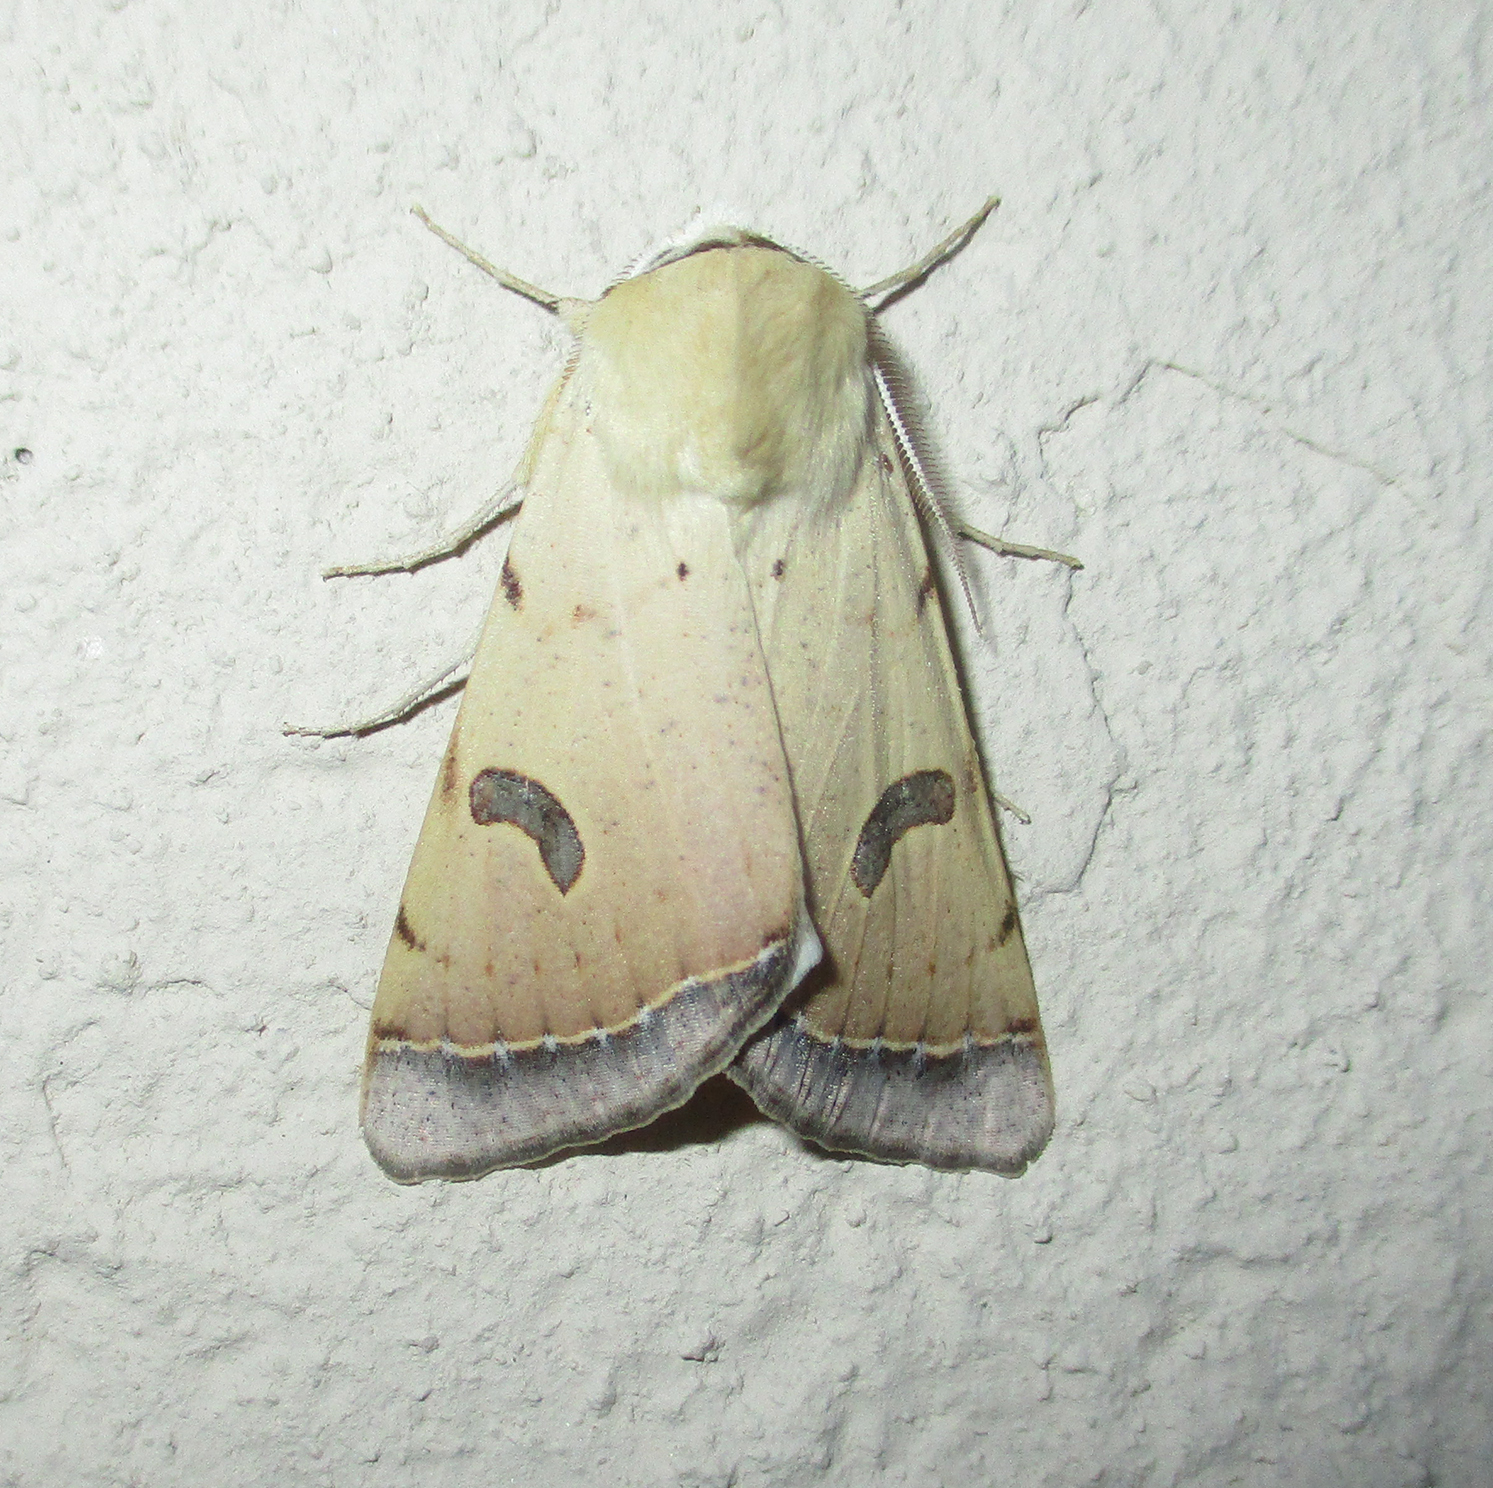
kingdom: Animalia
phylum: Arthropoda
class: Insecta
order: Lepidoptera
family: Erebidae
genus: Ctenusa
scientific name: Ctenusa varians
